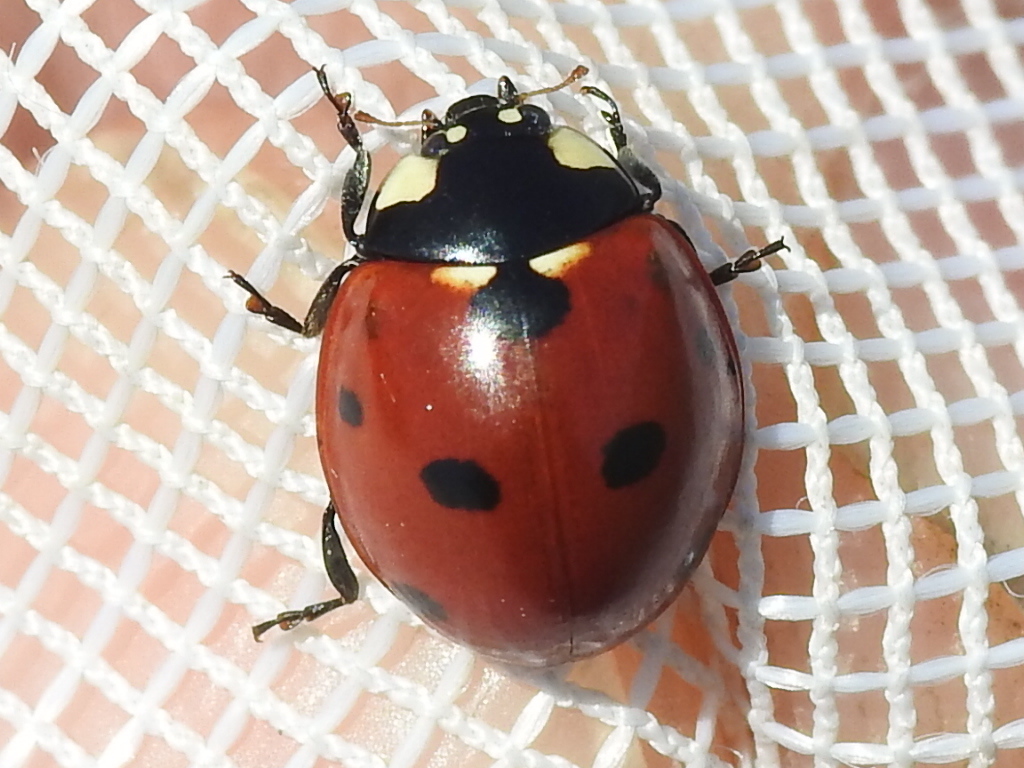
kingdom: Animalia
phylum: Arthropoda
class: Insecta
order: Coleoptera
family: Coccinellidae
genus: Coccinella
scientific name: Coccinella septempunctata
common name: Sevenspotted lady beetle
